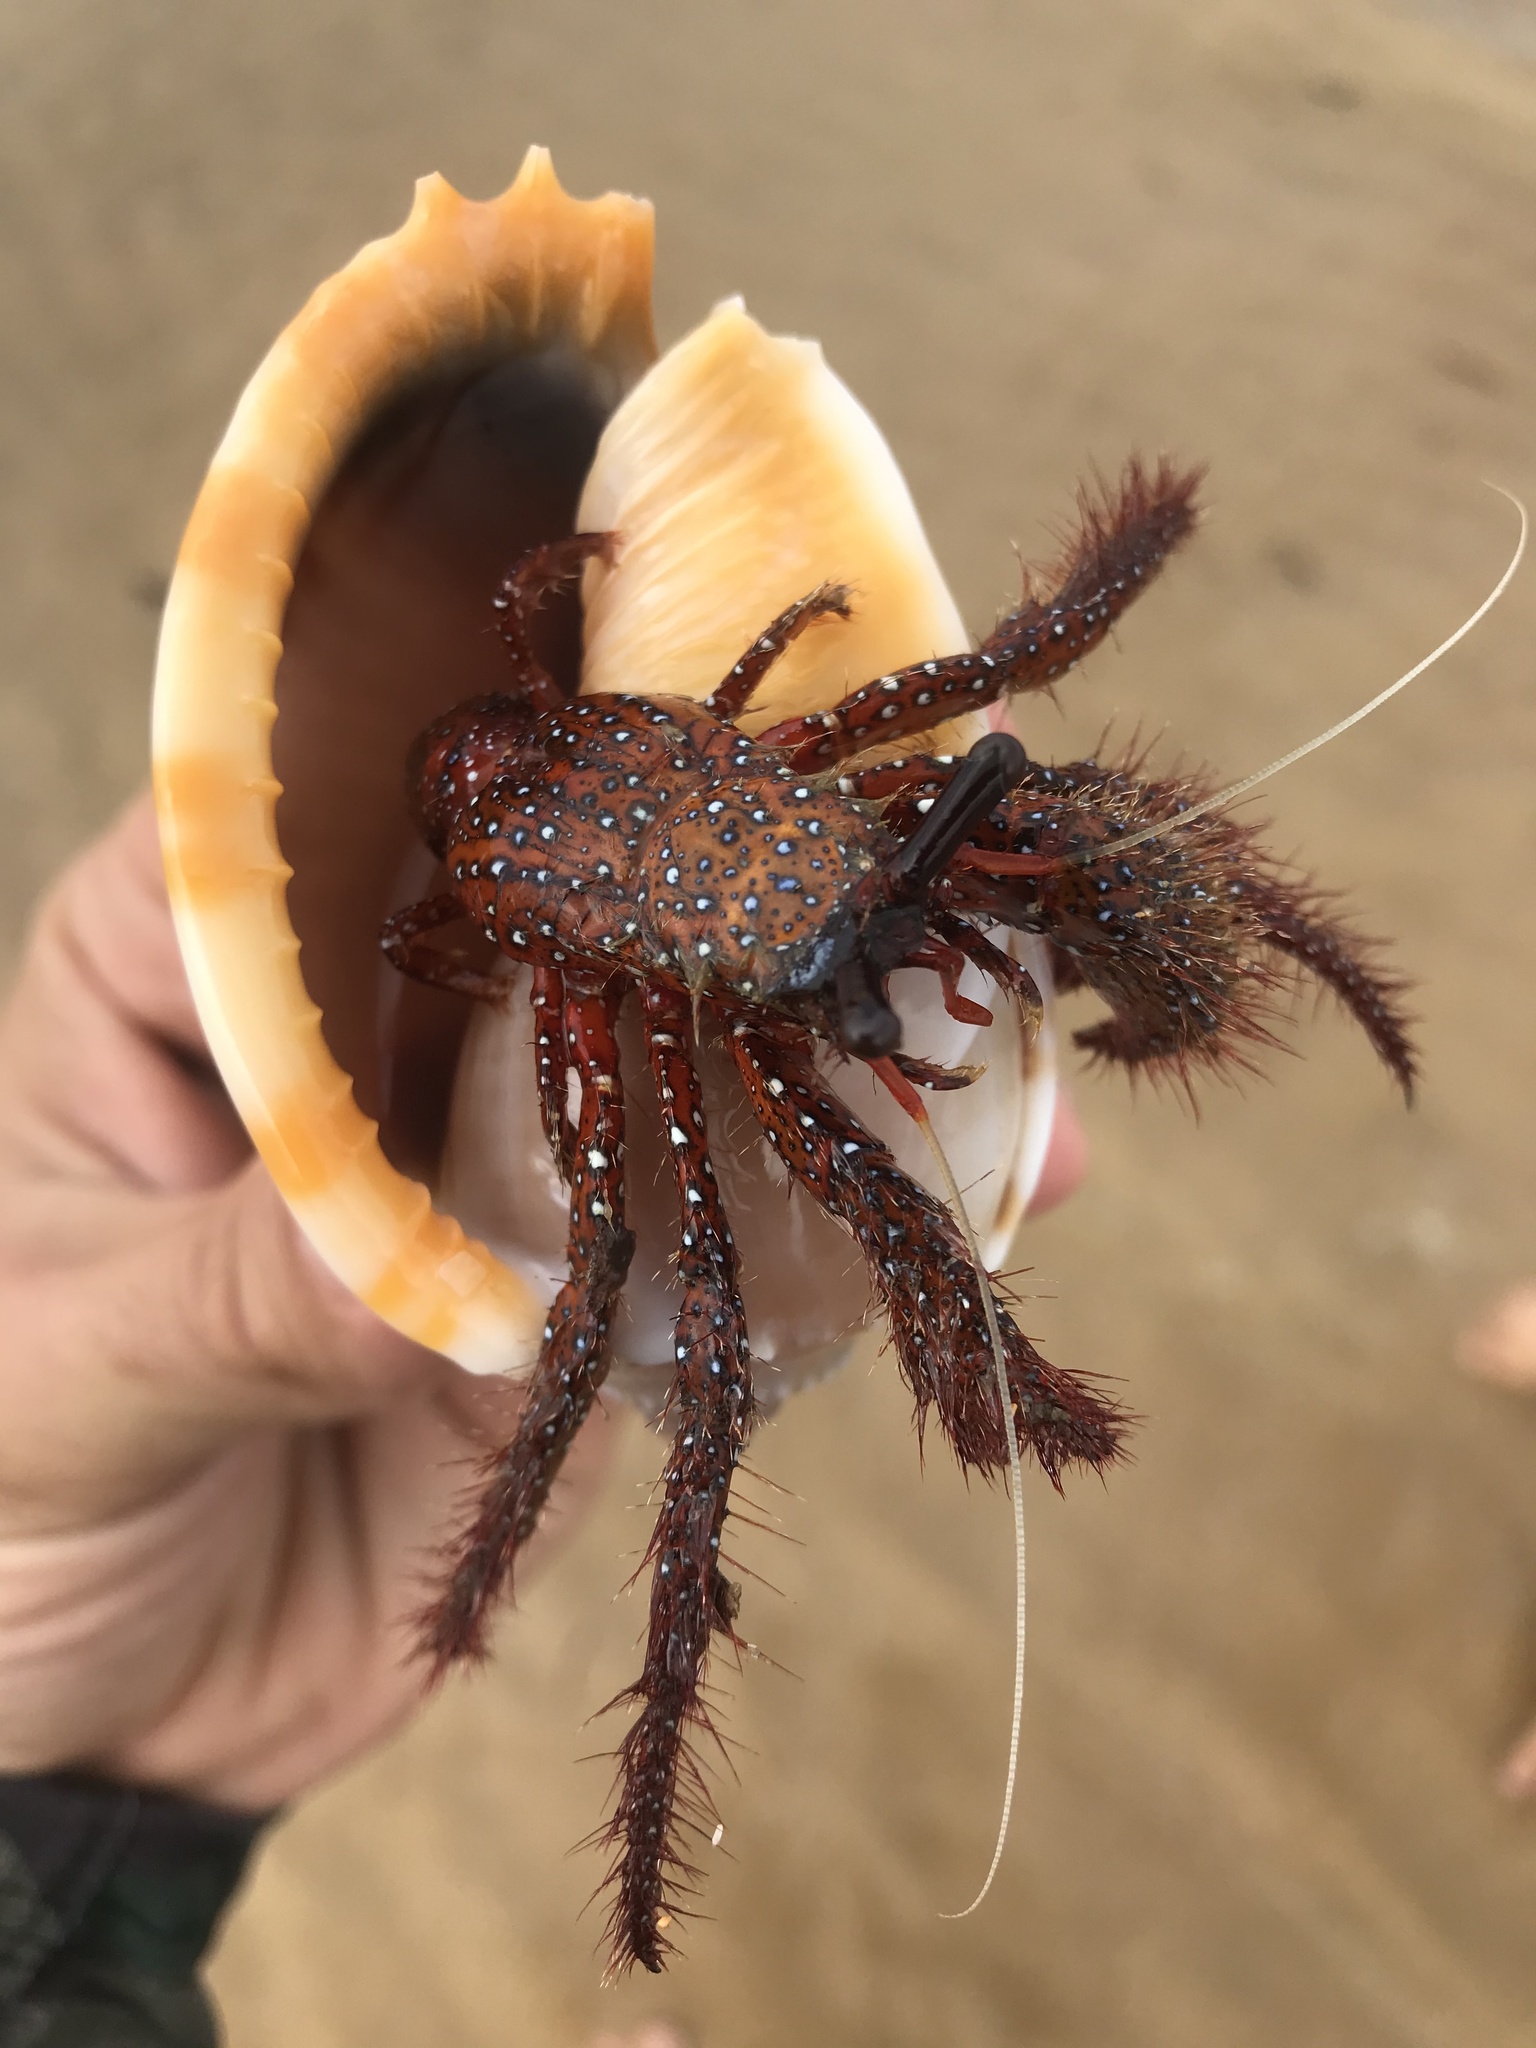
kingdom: Animalia
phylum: Arthropoda
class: Malacostraca
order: Decapoda
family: Diogenidae
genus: Dardanus
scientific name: Dardanus megistos
